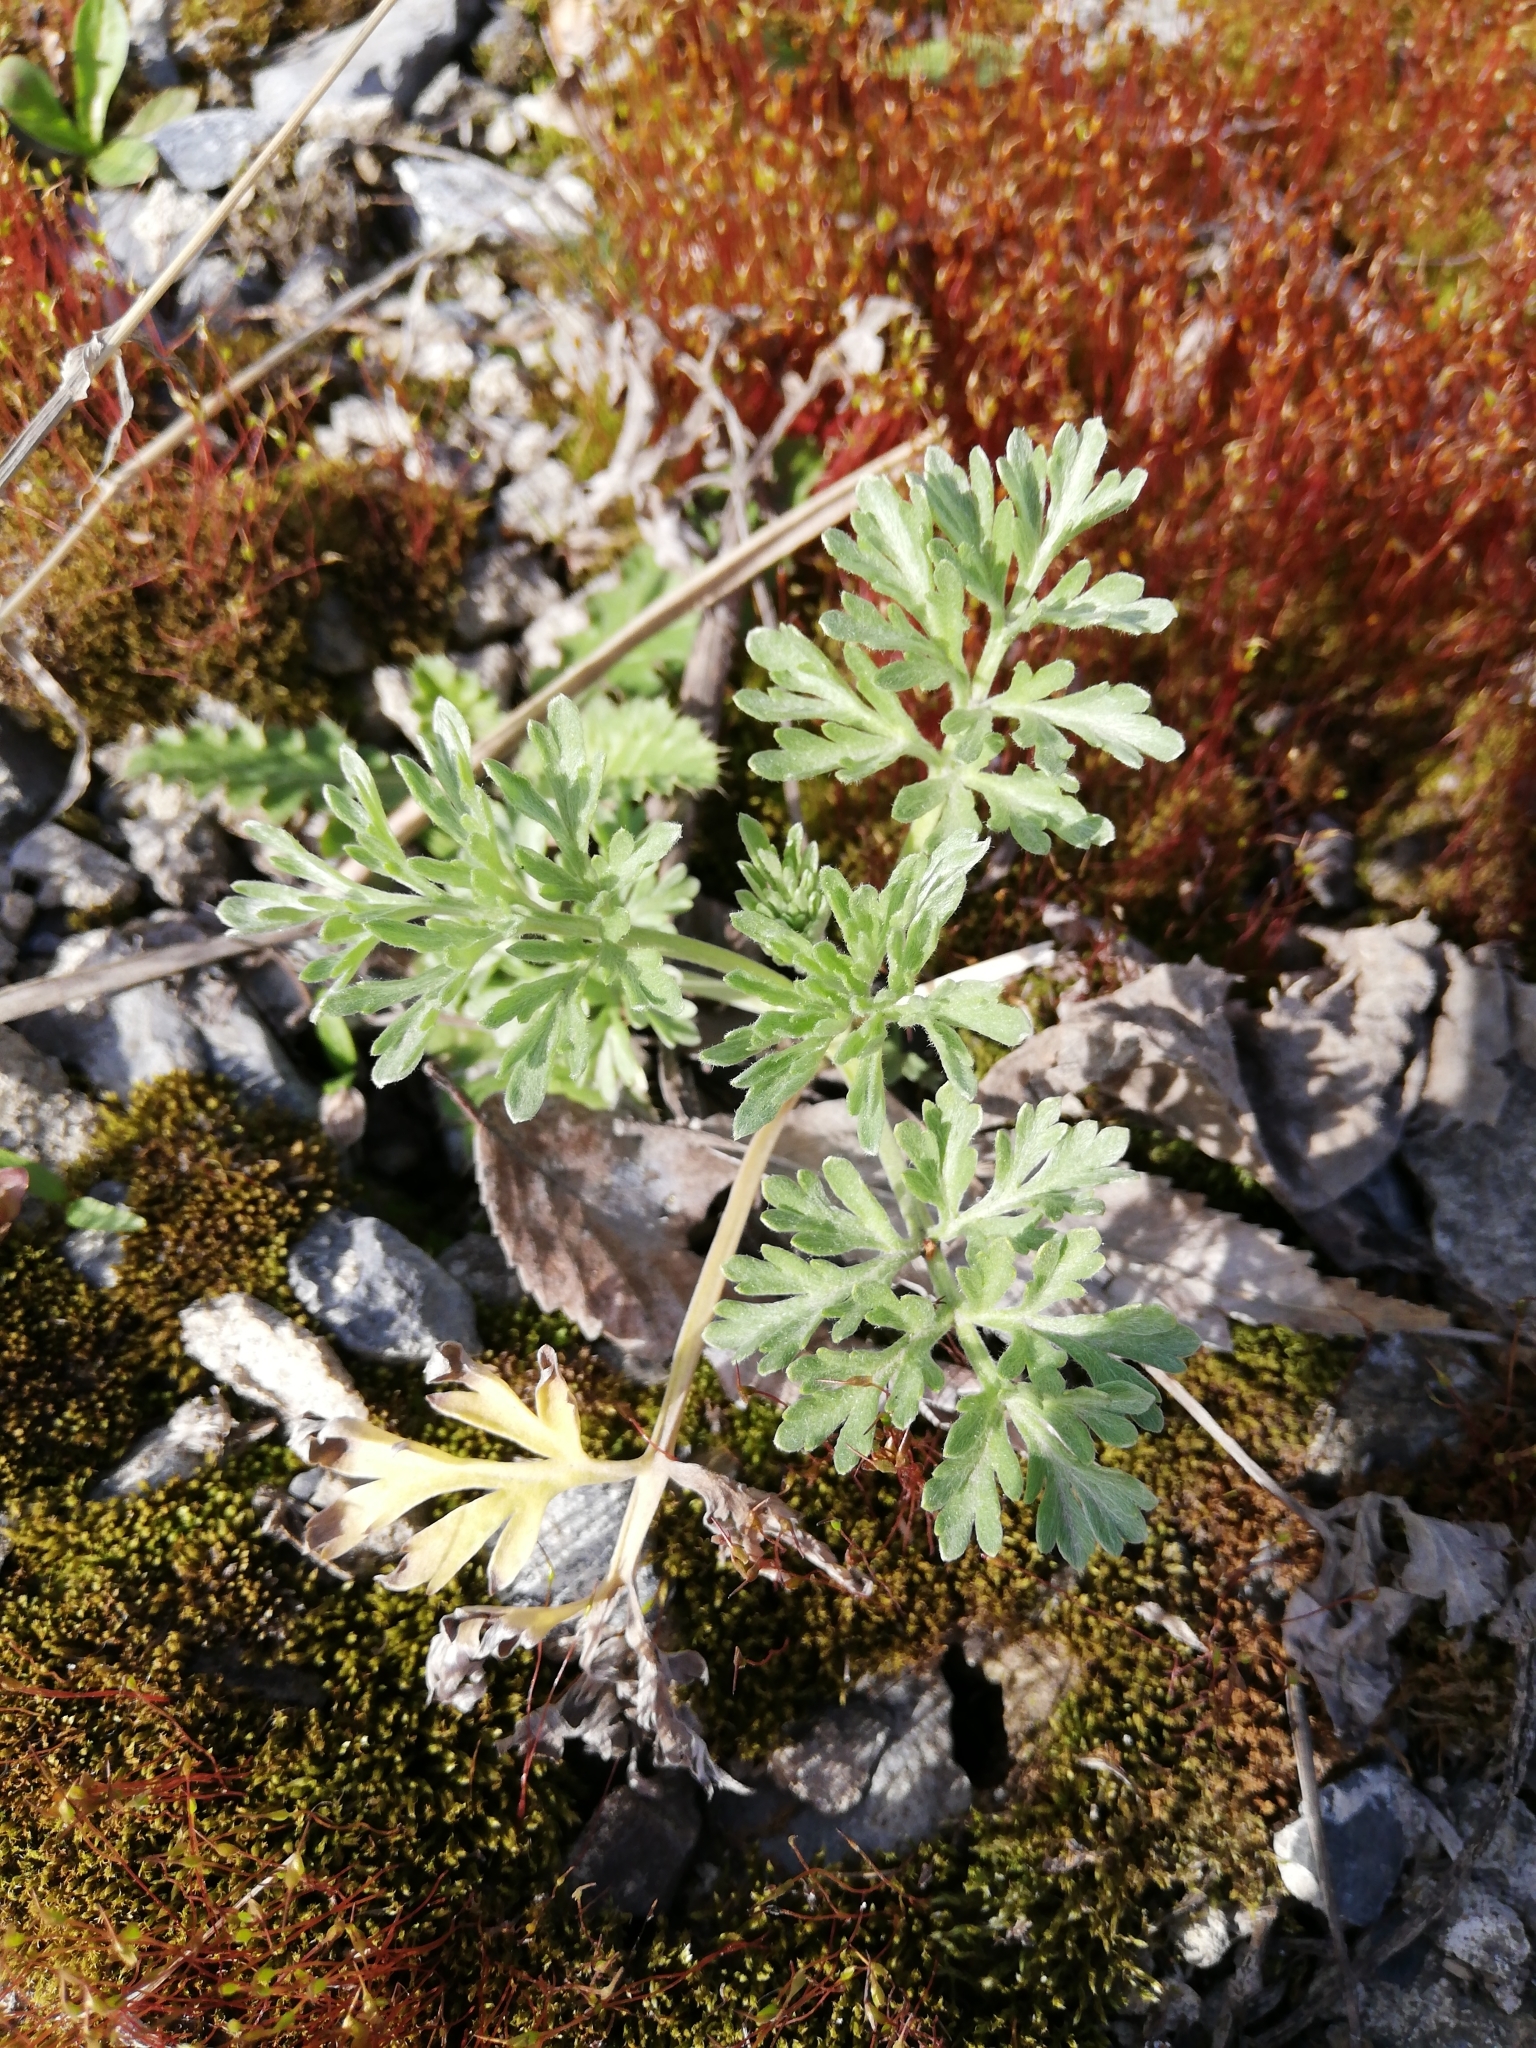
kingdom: Plantae
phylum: Tracheophyta
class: Magnoliopsida
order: Asterales
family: Asteraceae
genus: Artemisia
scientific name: Artemisia absinthium
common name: Wormwood
